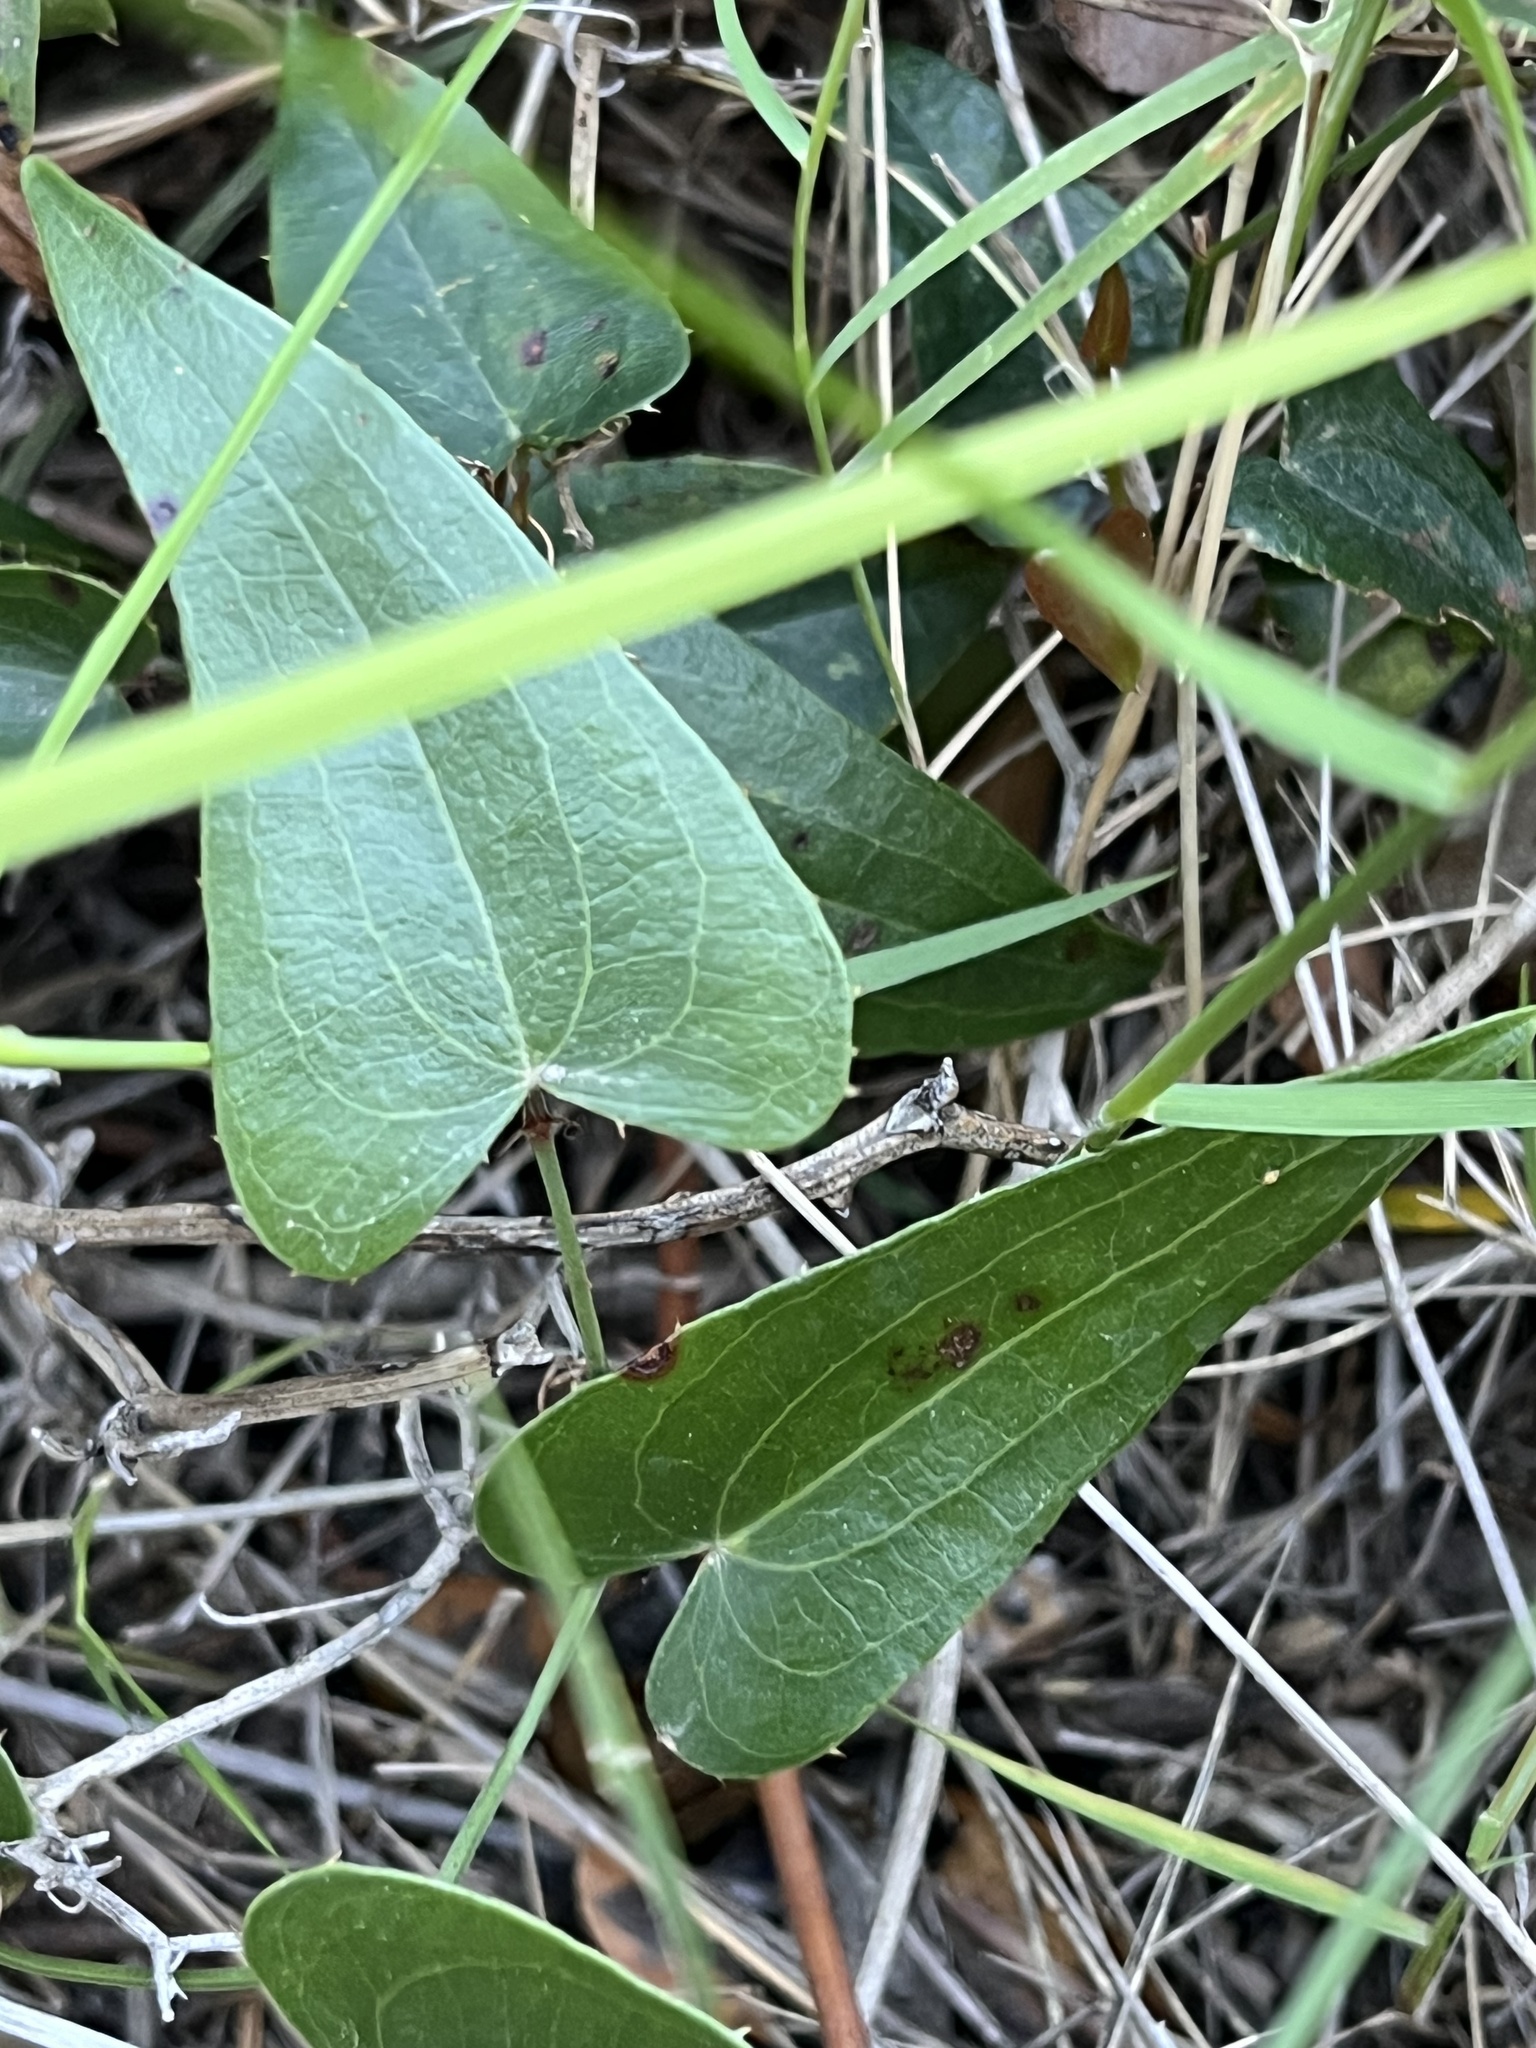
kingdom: Plantae
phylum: Tracheophyta
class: Liliopsida
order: Liliales
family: Smilacaceae
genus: Smilax
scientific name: Smilax aspera
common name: Common smilax
